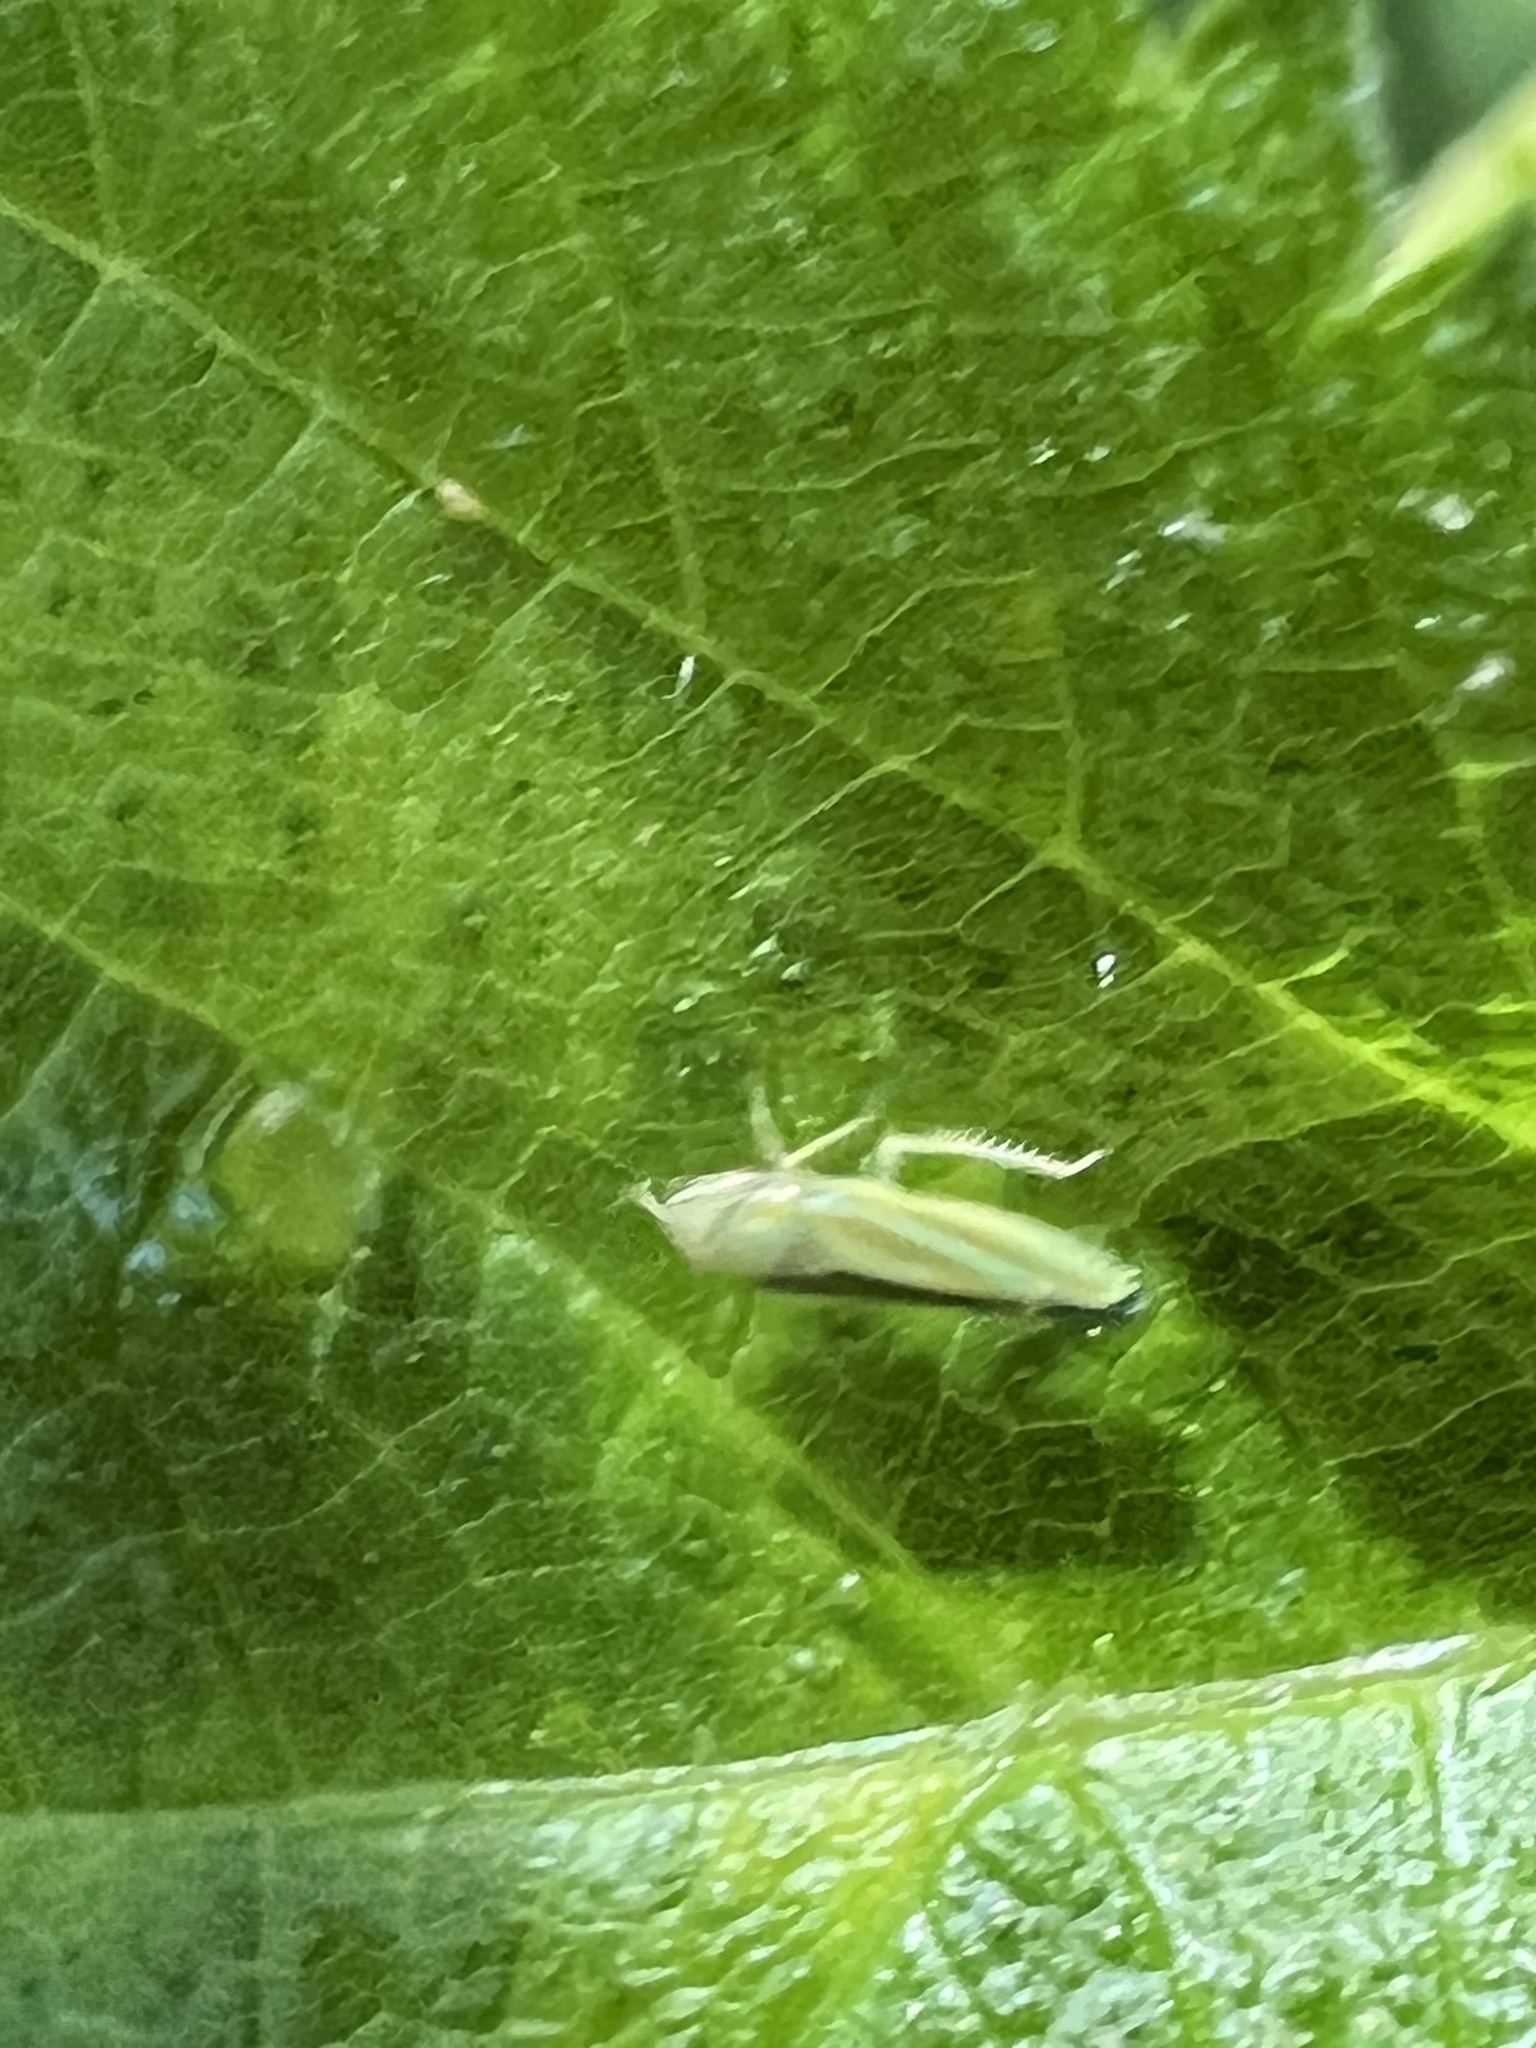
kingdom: Animalia
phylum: Arthropoda
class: Insecta
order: Hemiptera
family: Cicadellidae
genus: Graphocephala
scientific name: Graphocephala versuta
